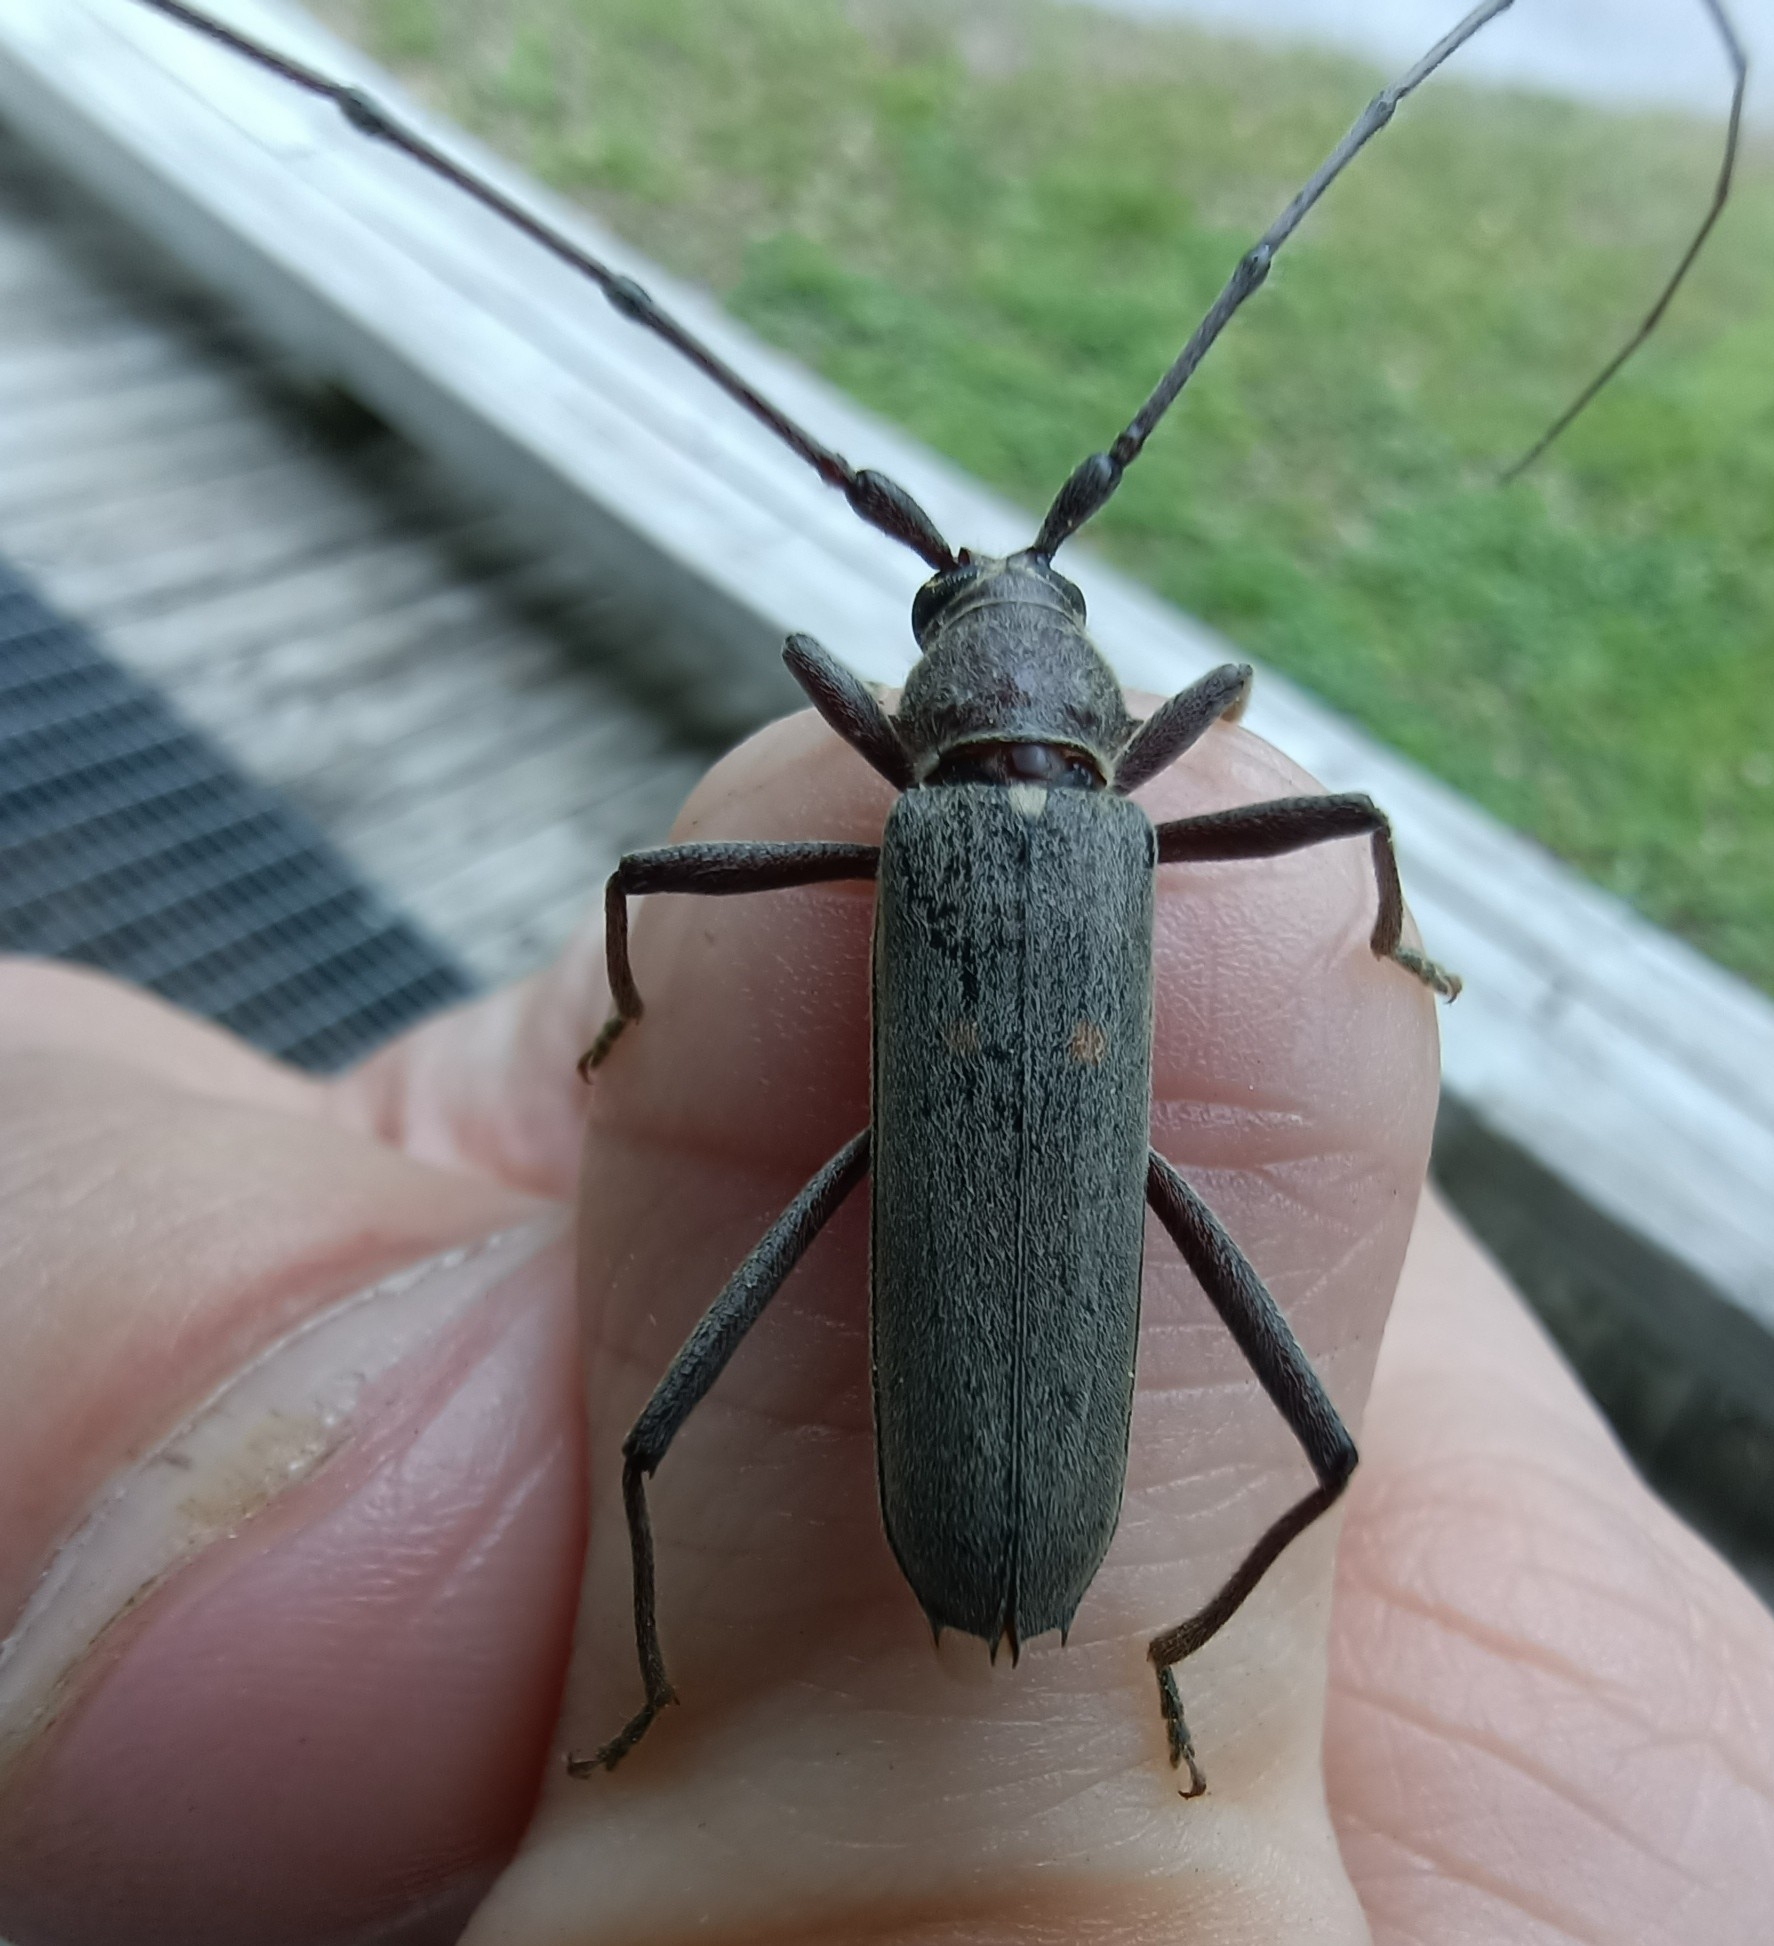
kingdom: Animalia
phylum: Arthropoda
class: Insecta
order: Coleoptera
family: Cerambycidae
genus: Knulliana
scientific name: Knulliana cincta
